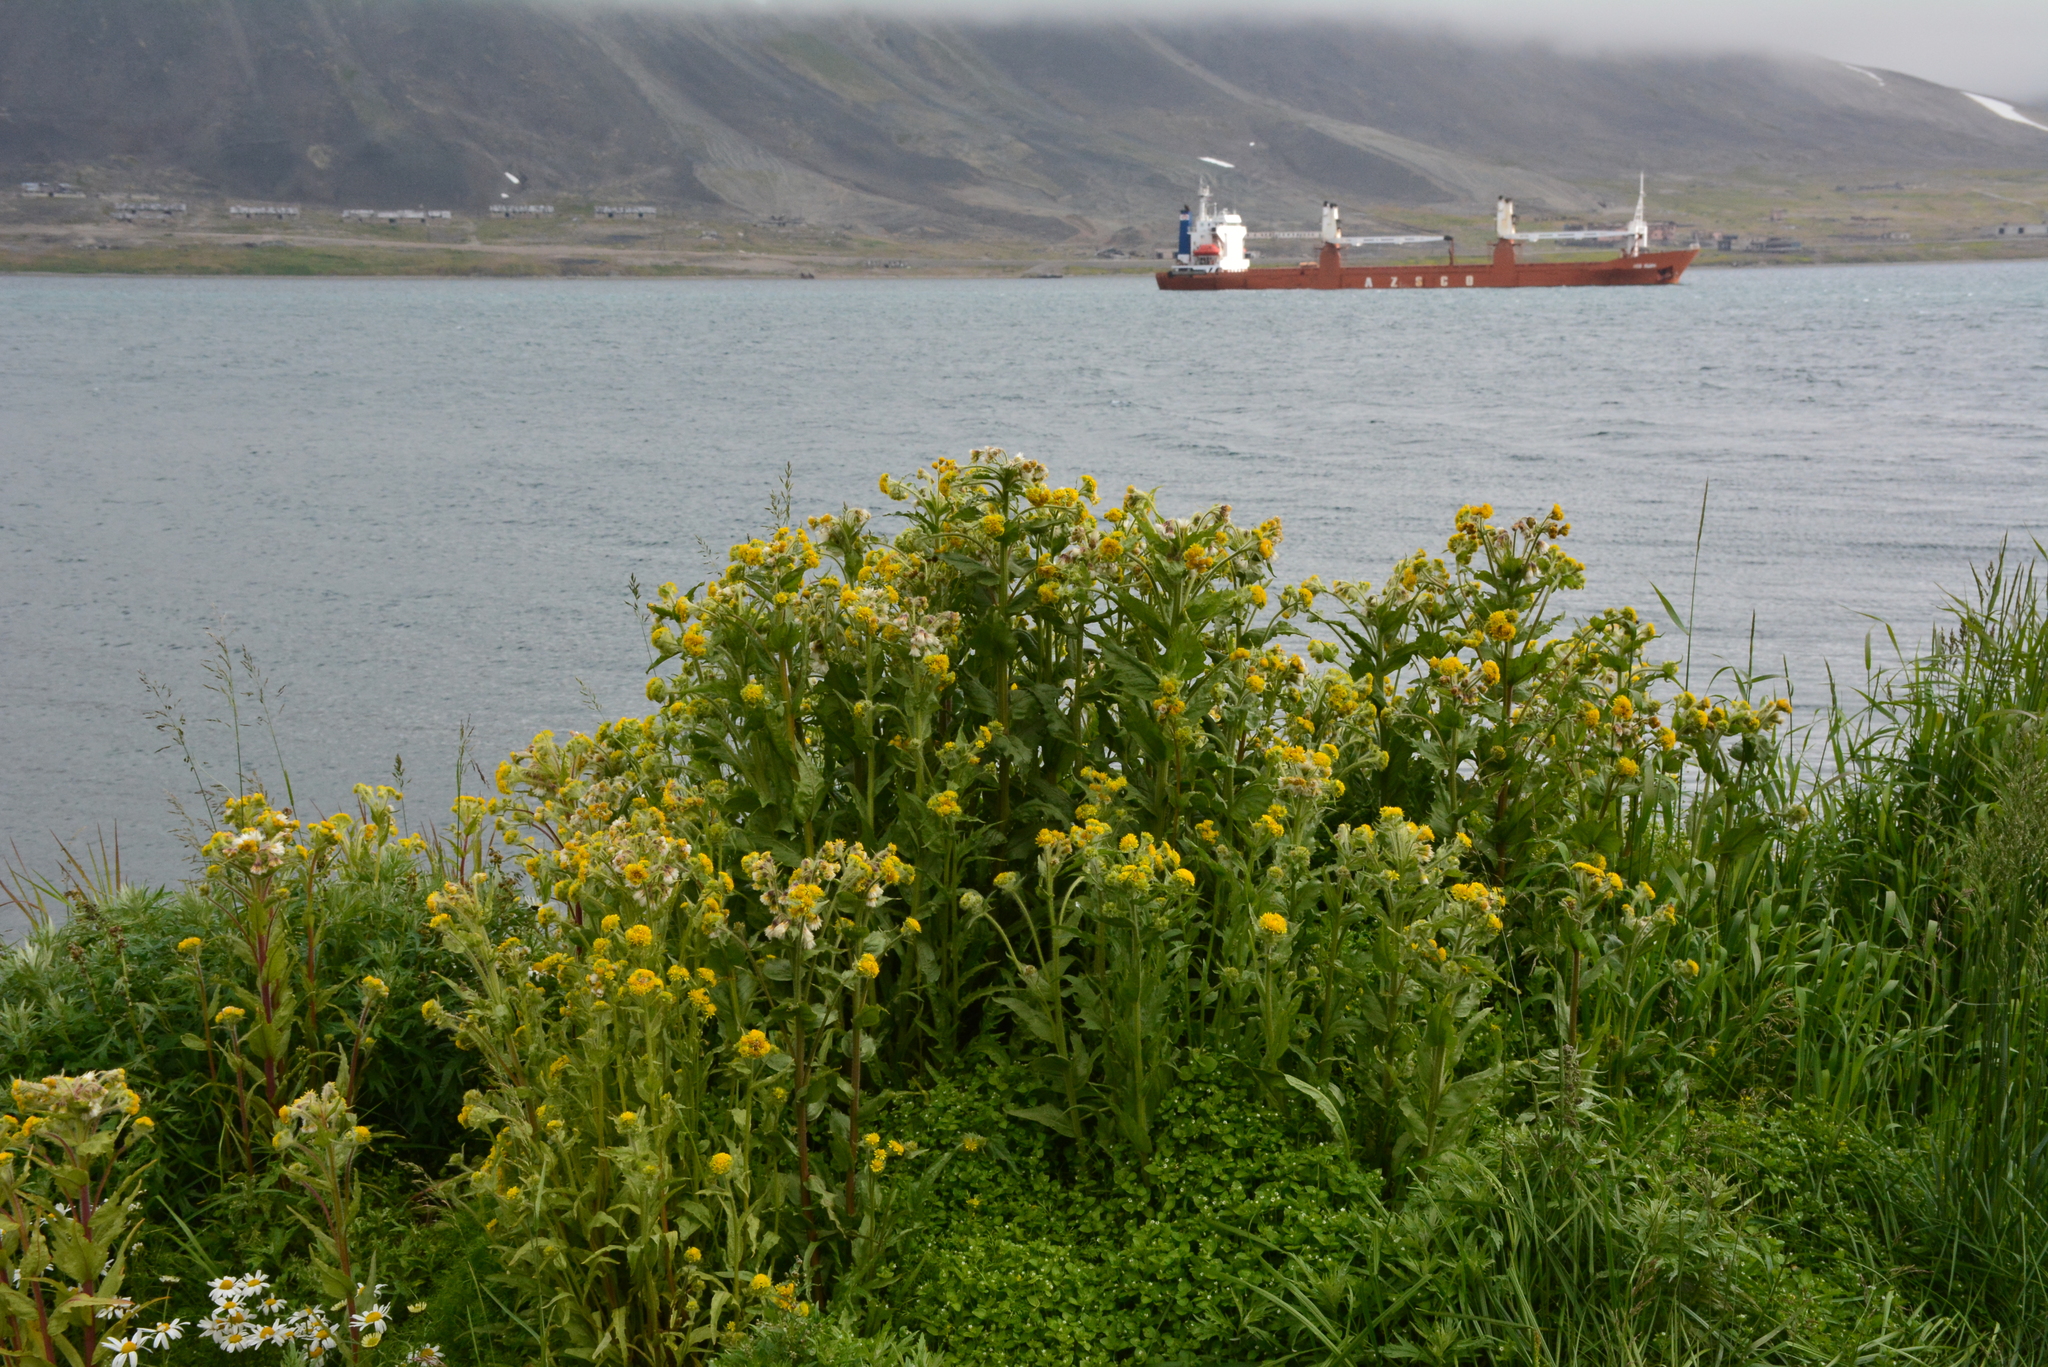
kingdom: Plantae
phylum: Tracheophyta
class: Magnoliopsida
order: Asterales
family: Asteraceae
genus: Tephroseris
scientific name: Tephroseris palustris
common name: Marsh fleawort
